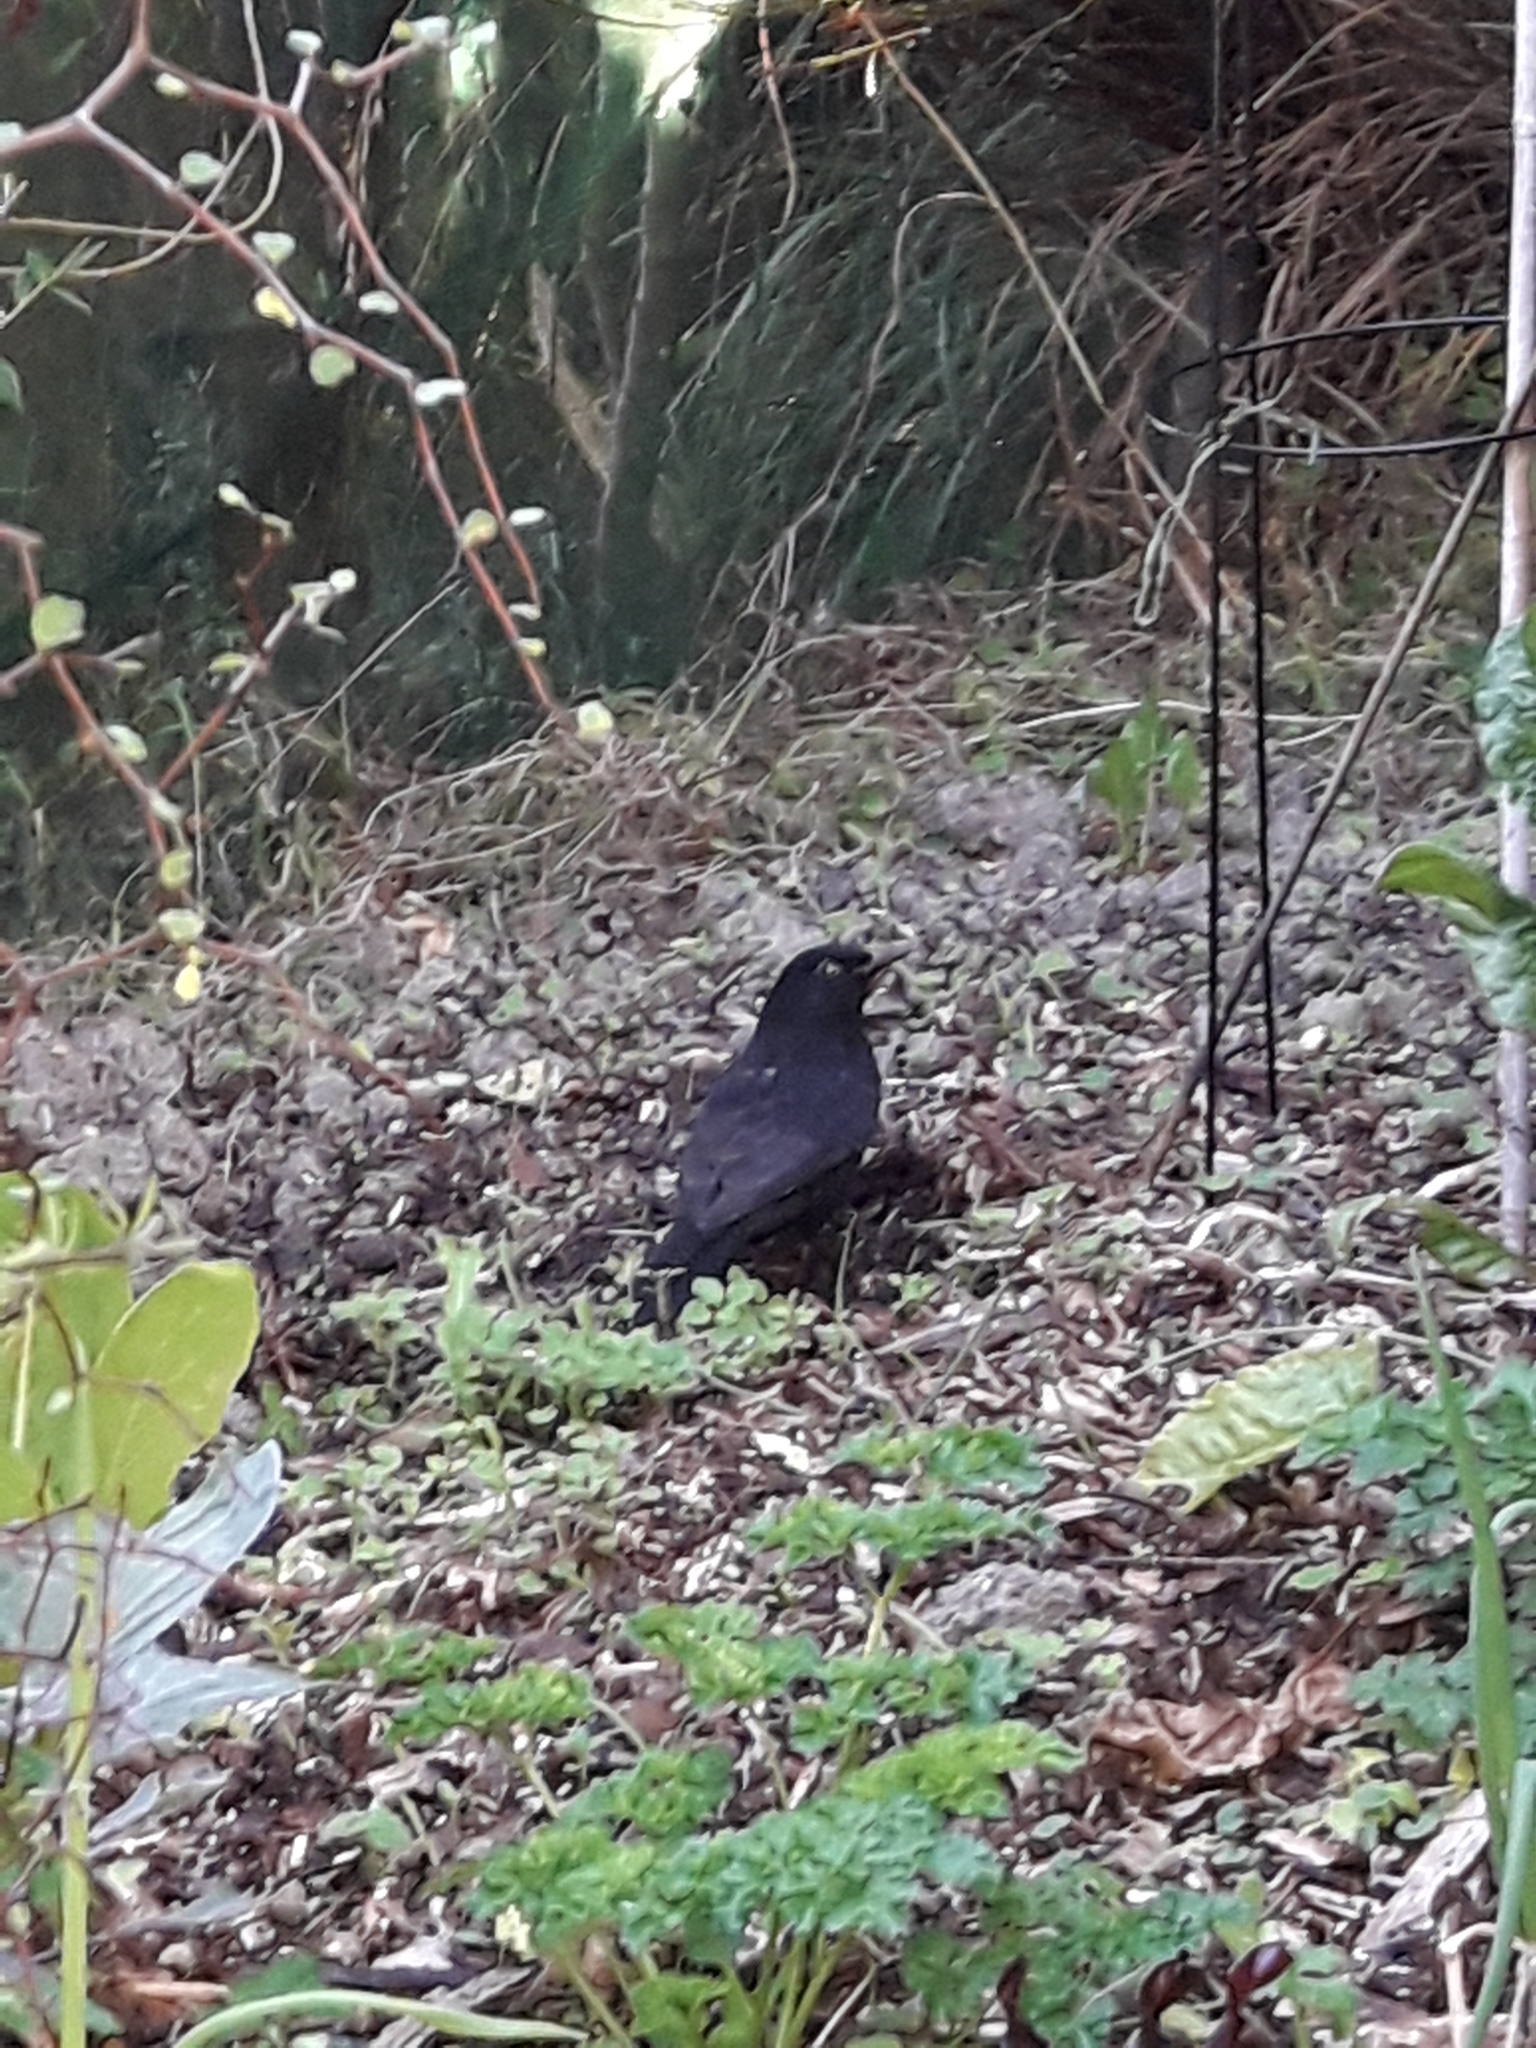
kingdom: Animalia
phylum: Chordata
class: Aves
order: Passeriformes
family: Turdidae
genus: Turdus
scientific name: Turdus merula
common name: Common blackbird
